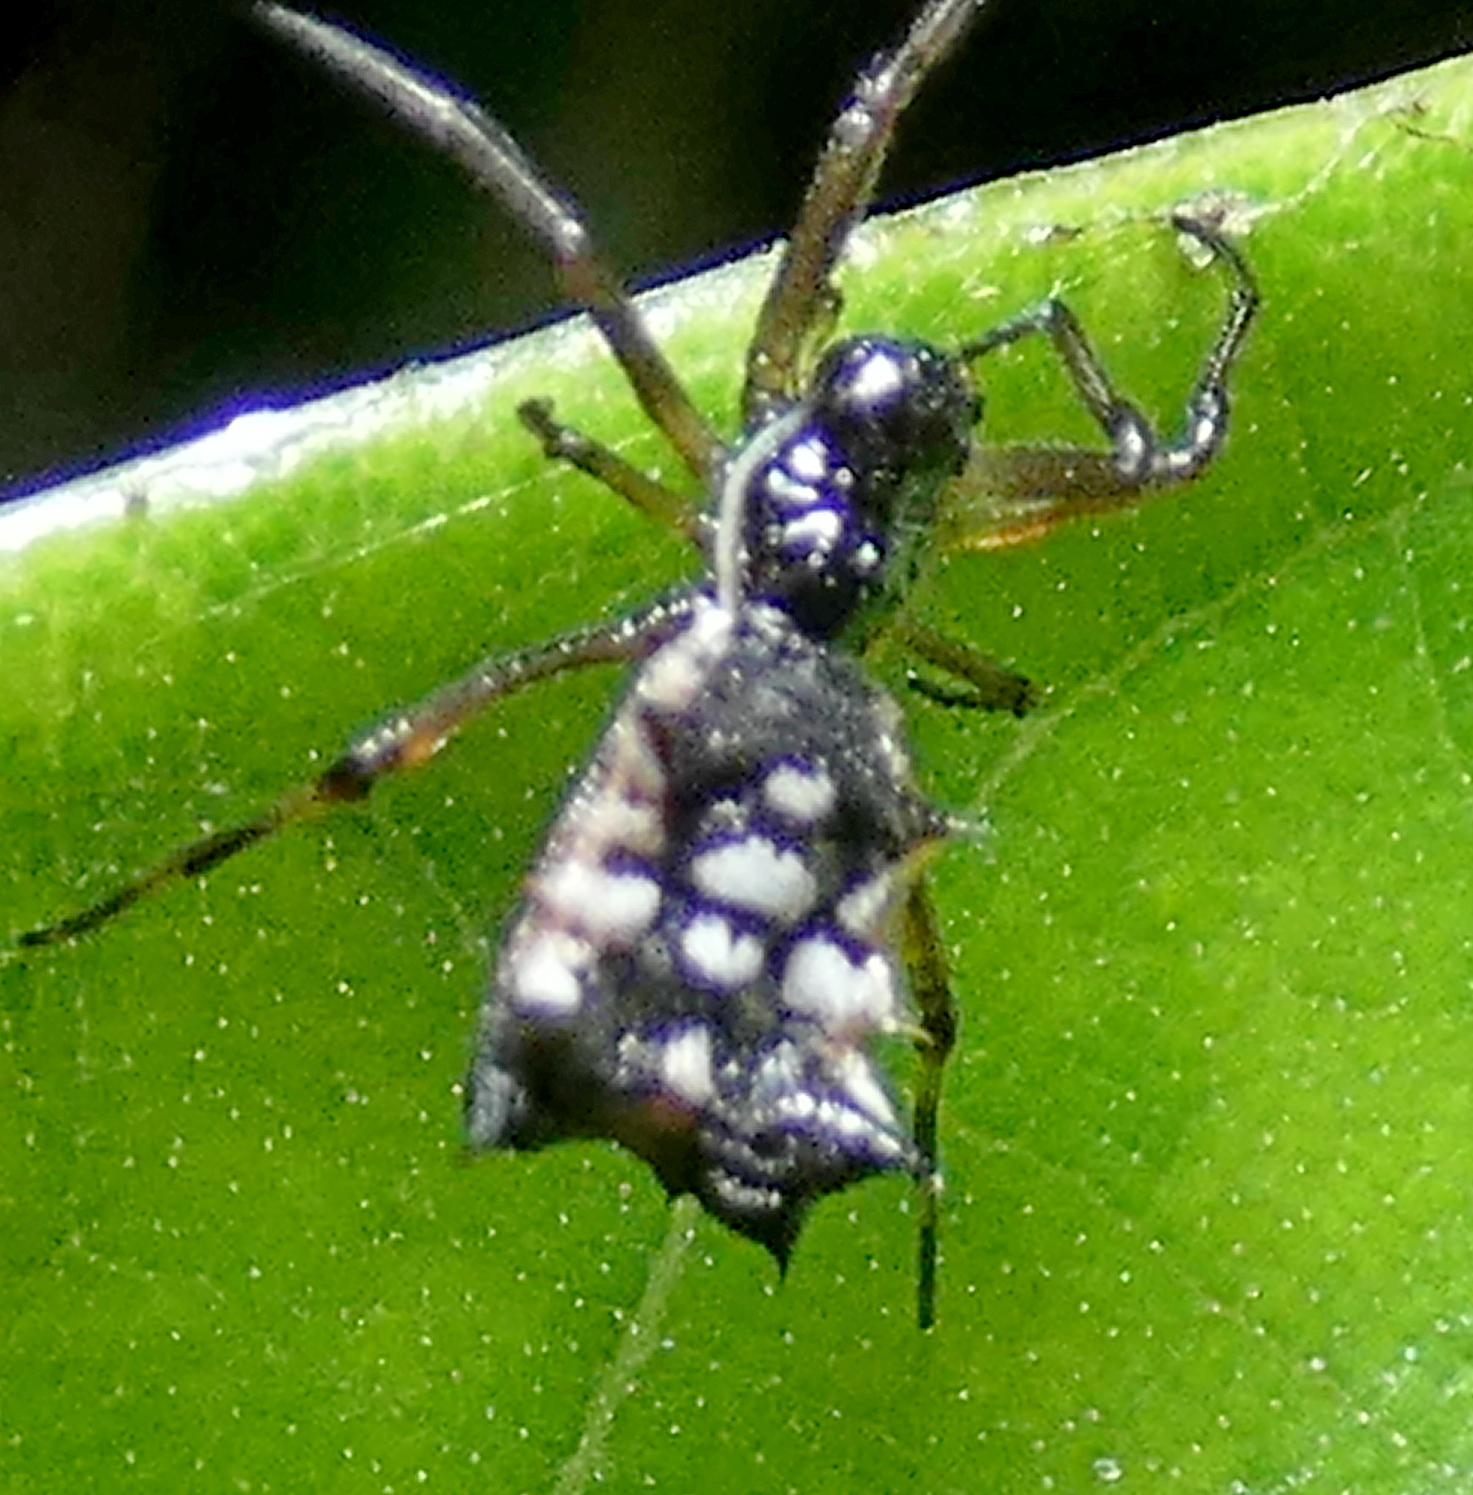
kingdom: Animalia
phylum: Arthropoda
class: Arachnida
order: Araneae
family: Araneidae
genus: Micrathena
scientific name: Micrathena picta
